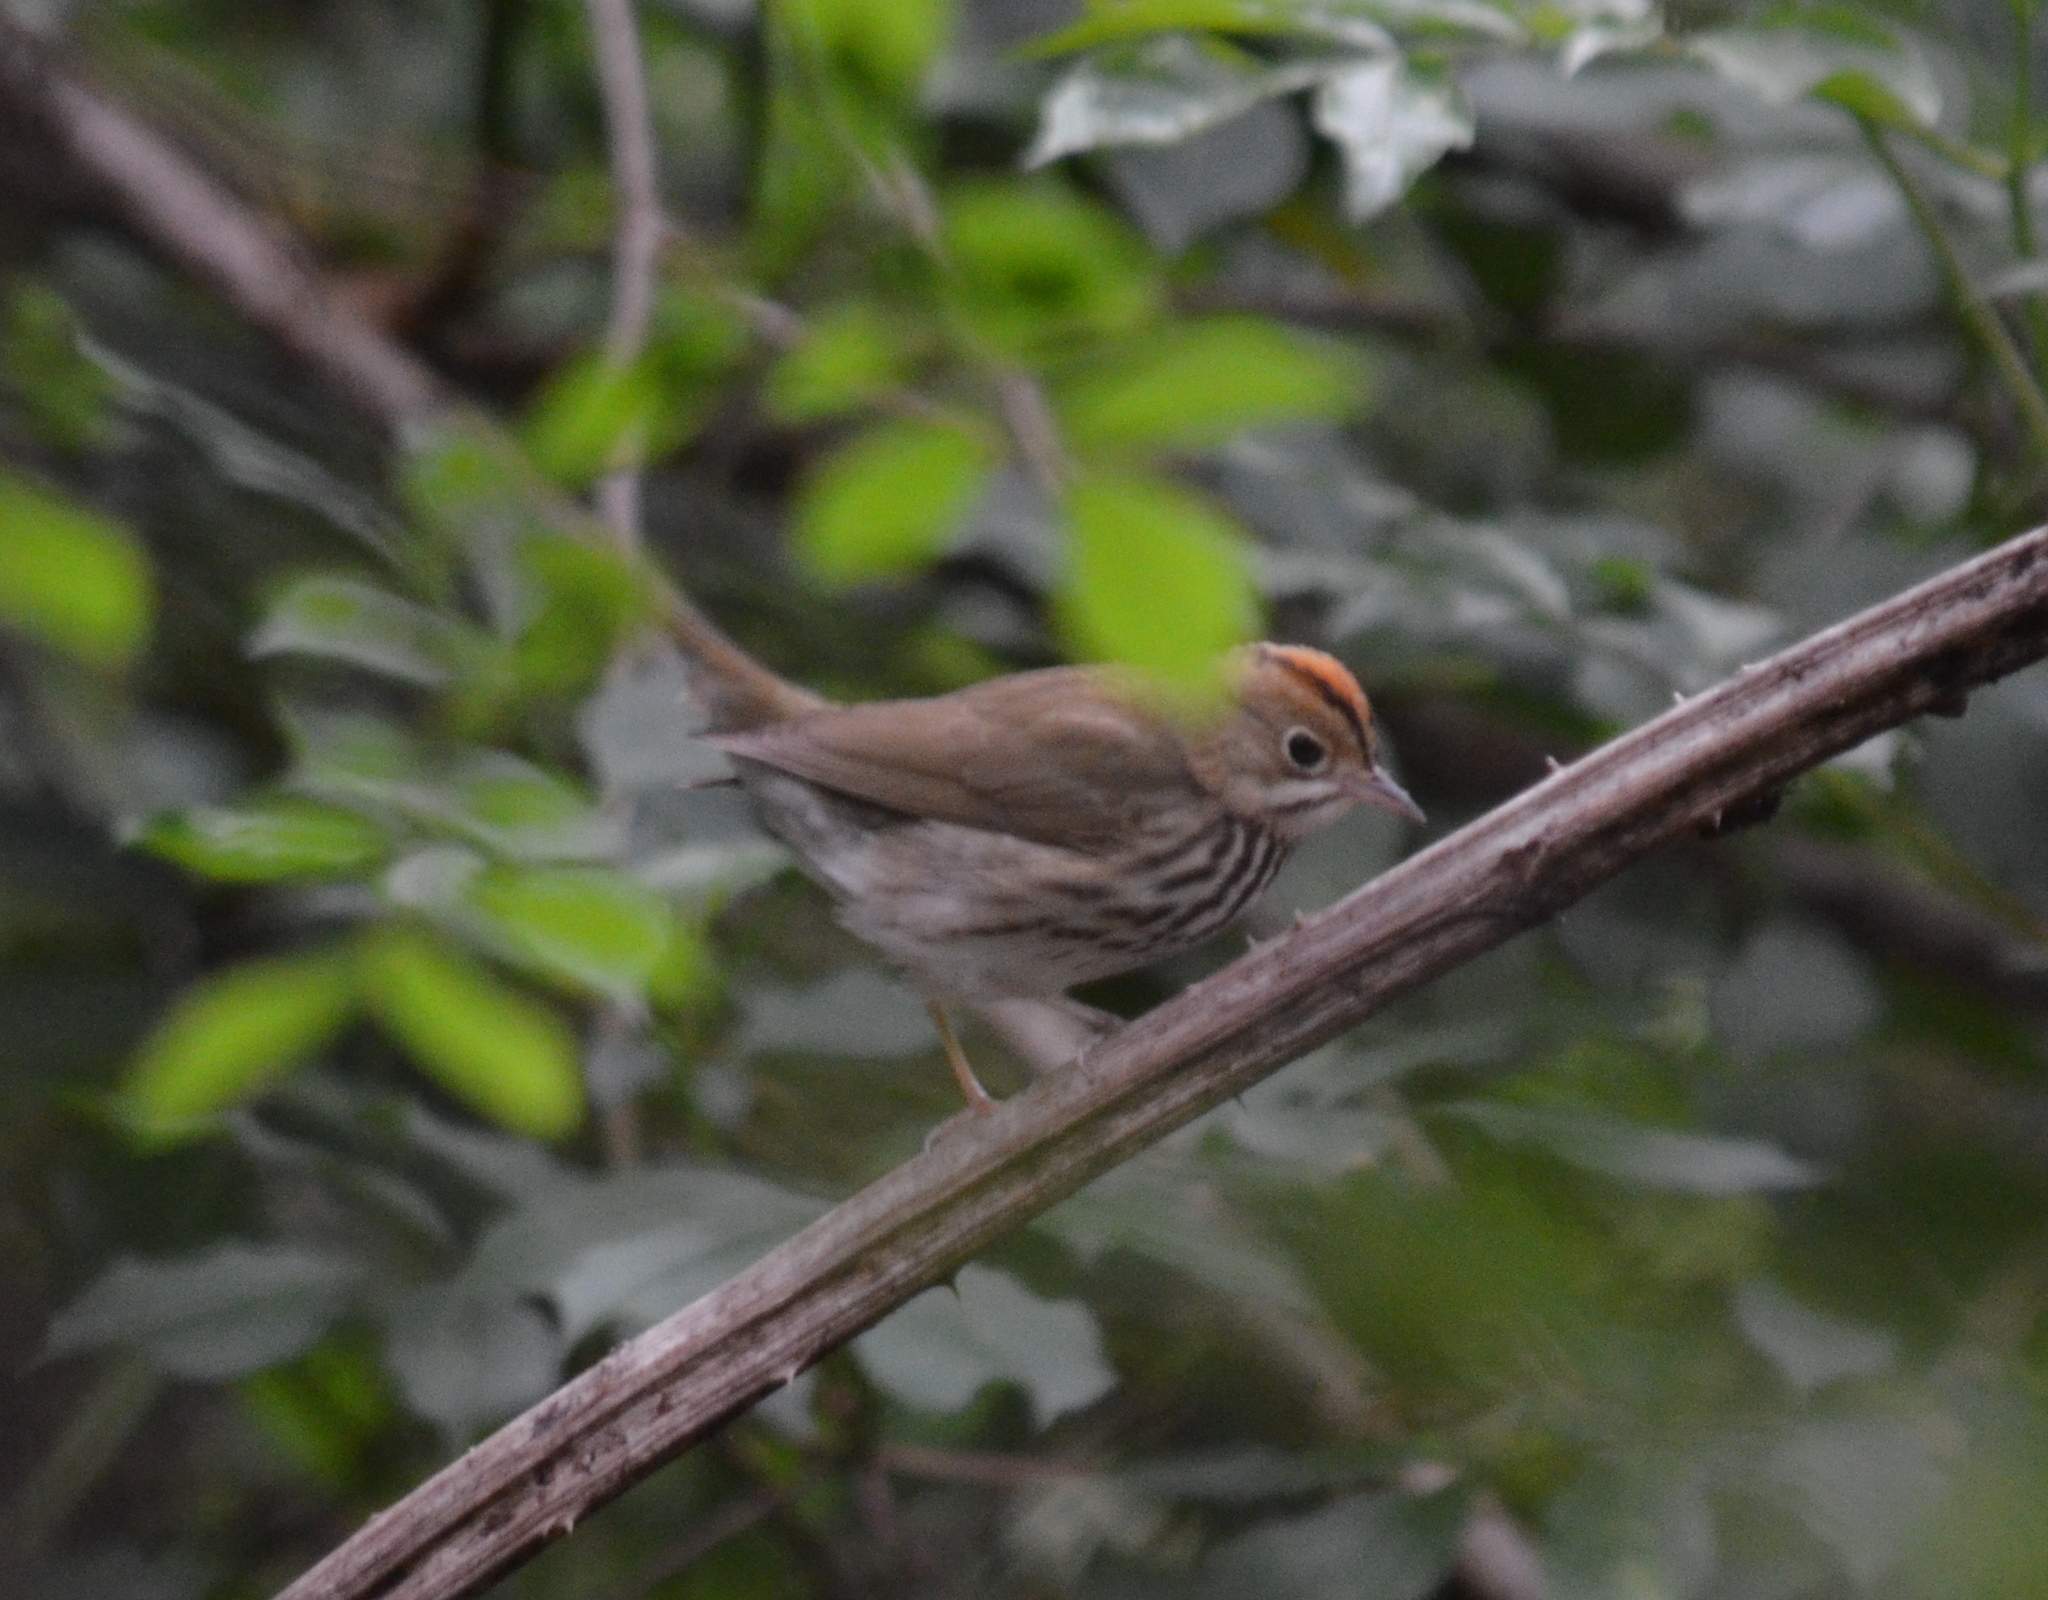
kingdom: Animalia
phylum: Chordata
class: Aves
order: Passeriformes
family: Parulidae
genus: Seiurus
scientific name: Seiurus aurocapilla
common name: Ovenbird
